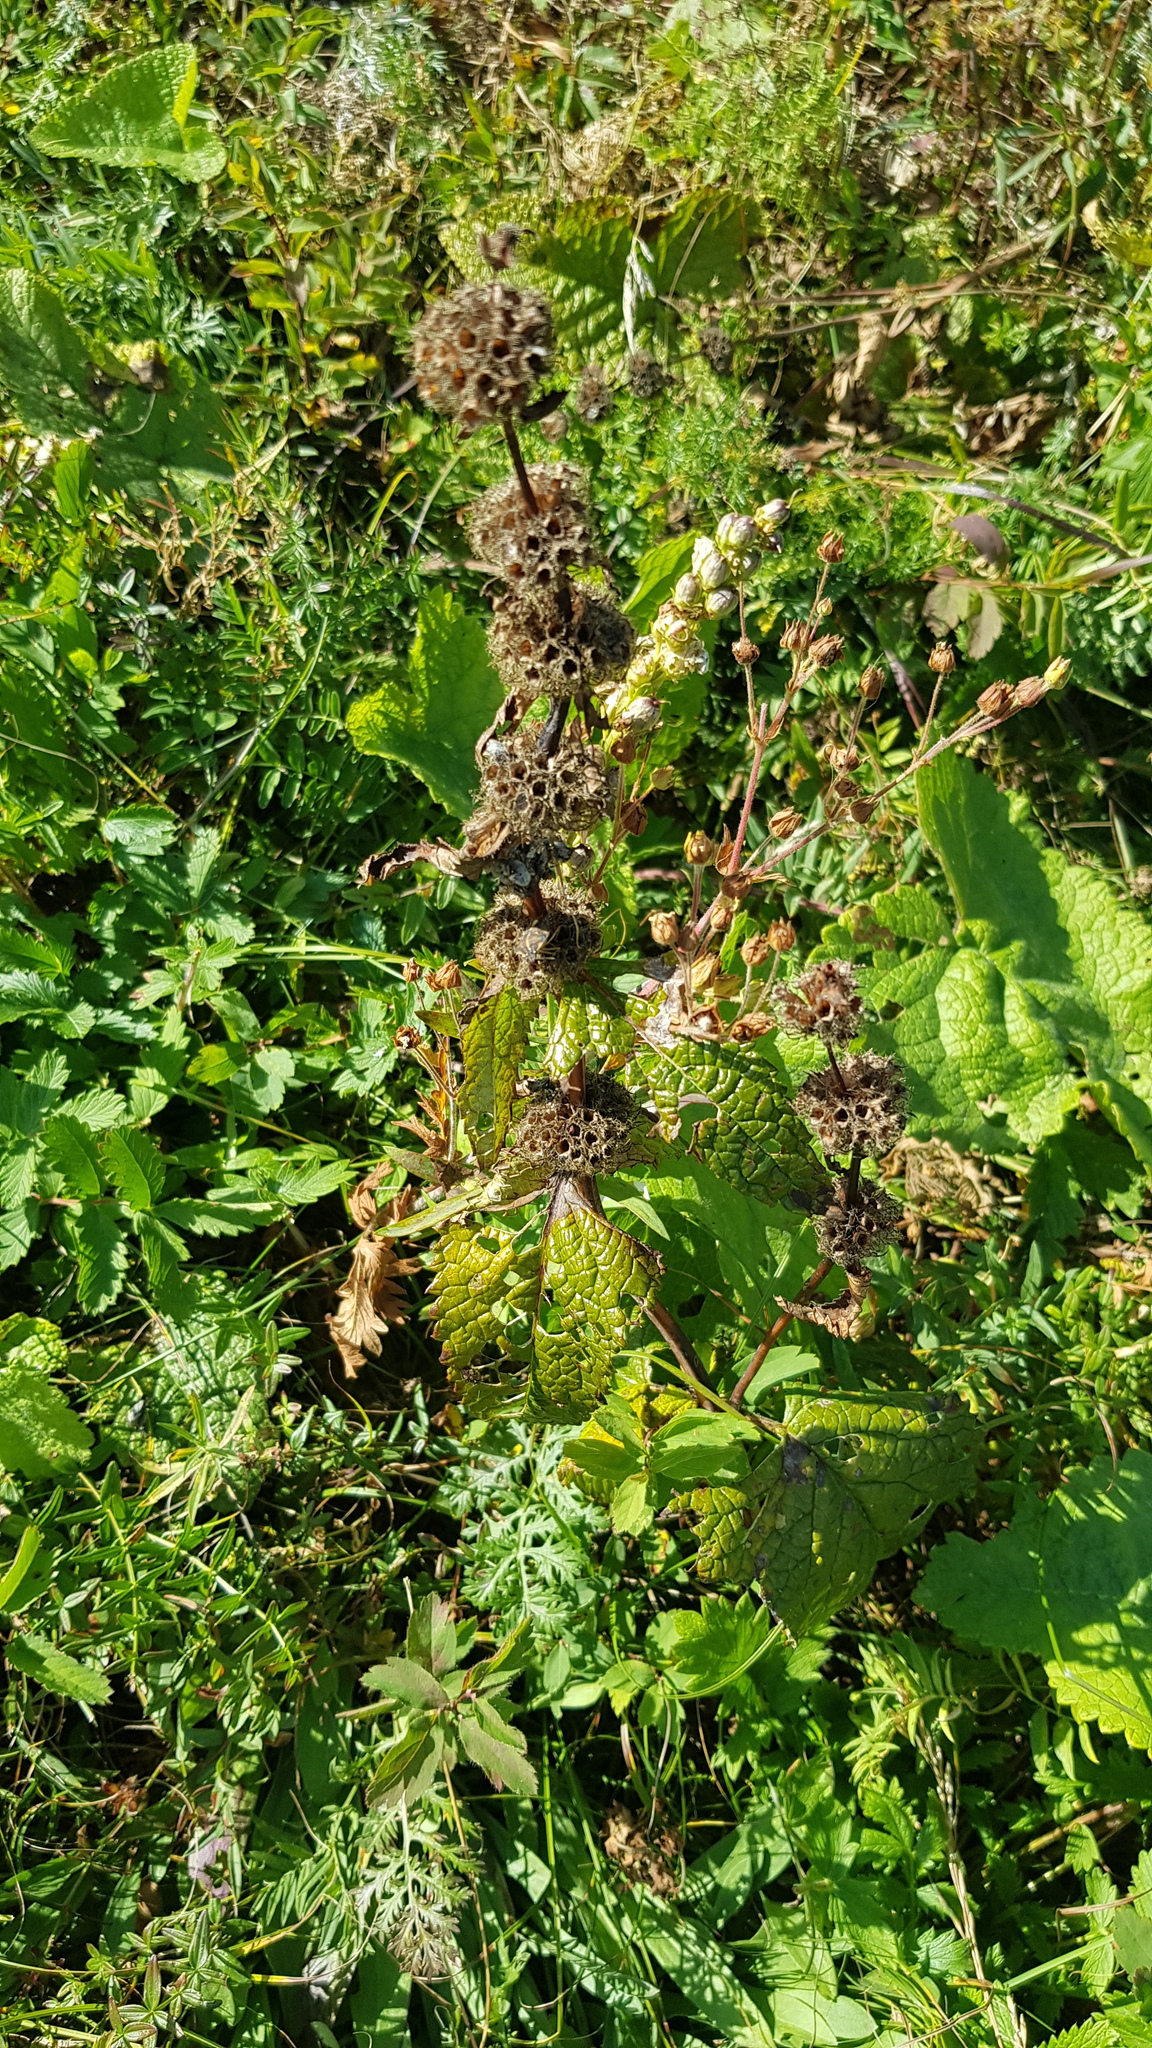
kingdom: Plantae
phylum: Tracheophyta
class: Magnoliopsida
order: Lamiales
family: Lamiaceae
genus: Phlomoides
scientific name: Phlomoides tuberosa
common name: Tuberous jerusalem sage
